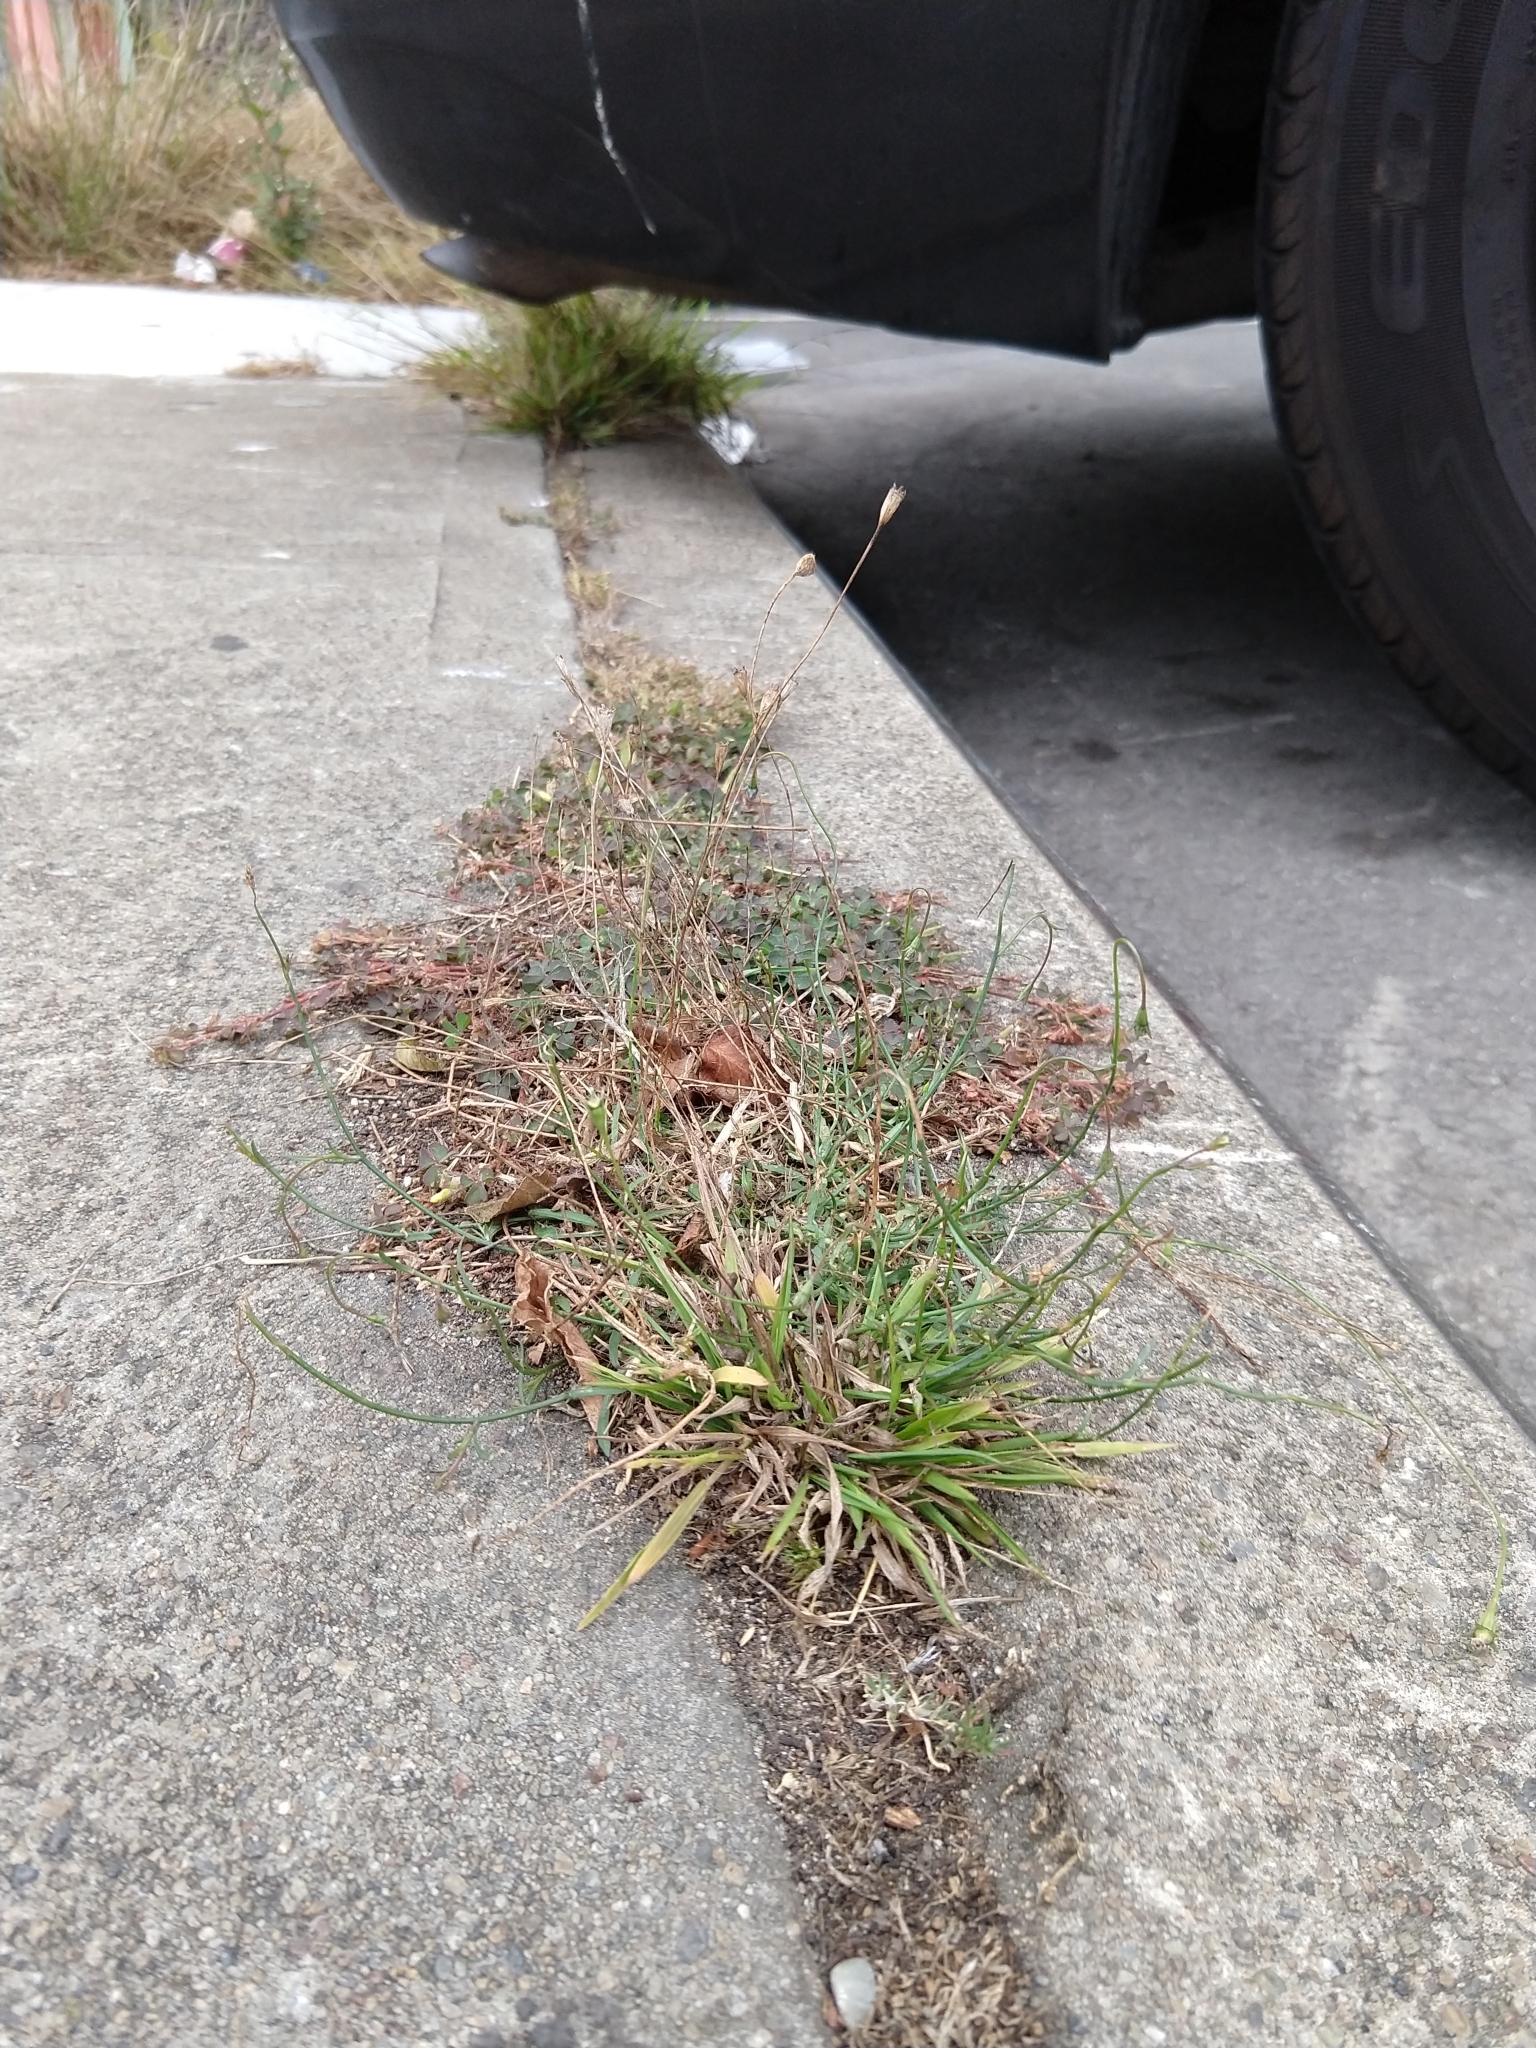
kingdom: Plantae
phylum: Tracheophyta
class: Magnoliopsida
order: Asterales
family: Campanulaceae
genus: Wahlenbergia
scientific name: Wahlenbergia marginata
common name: Southern rockbell
